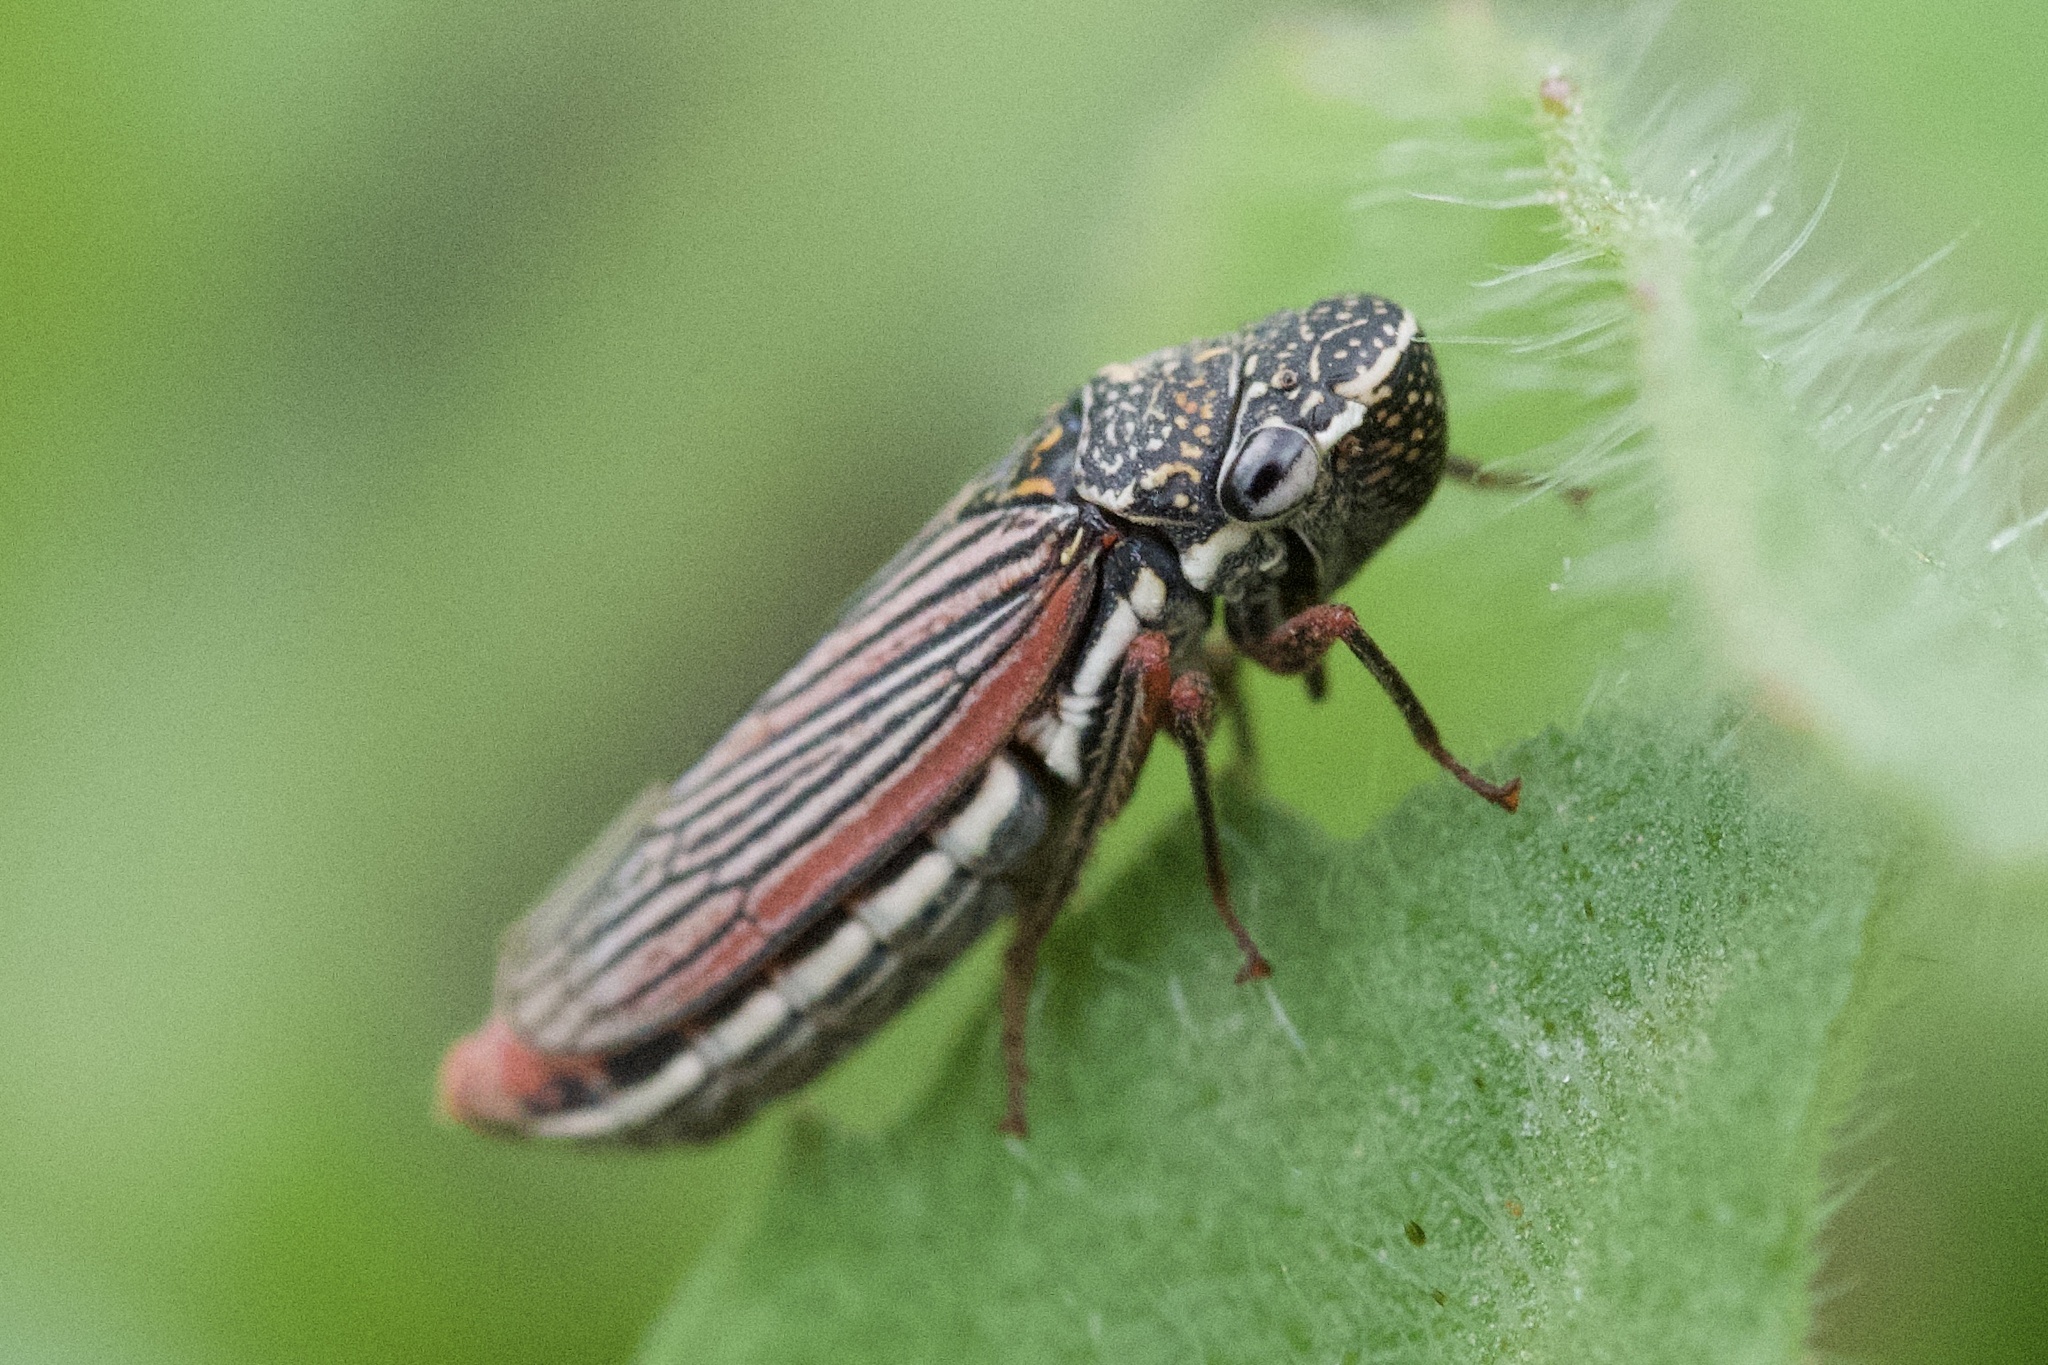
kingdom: Animalia
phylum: Arthropoda
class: Insecta
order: Hemiptera
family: Cicadellidae
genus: Cuerna
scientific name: Cuerna costalis
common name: Lateral-lined sharpshooter
